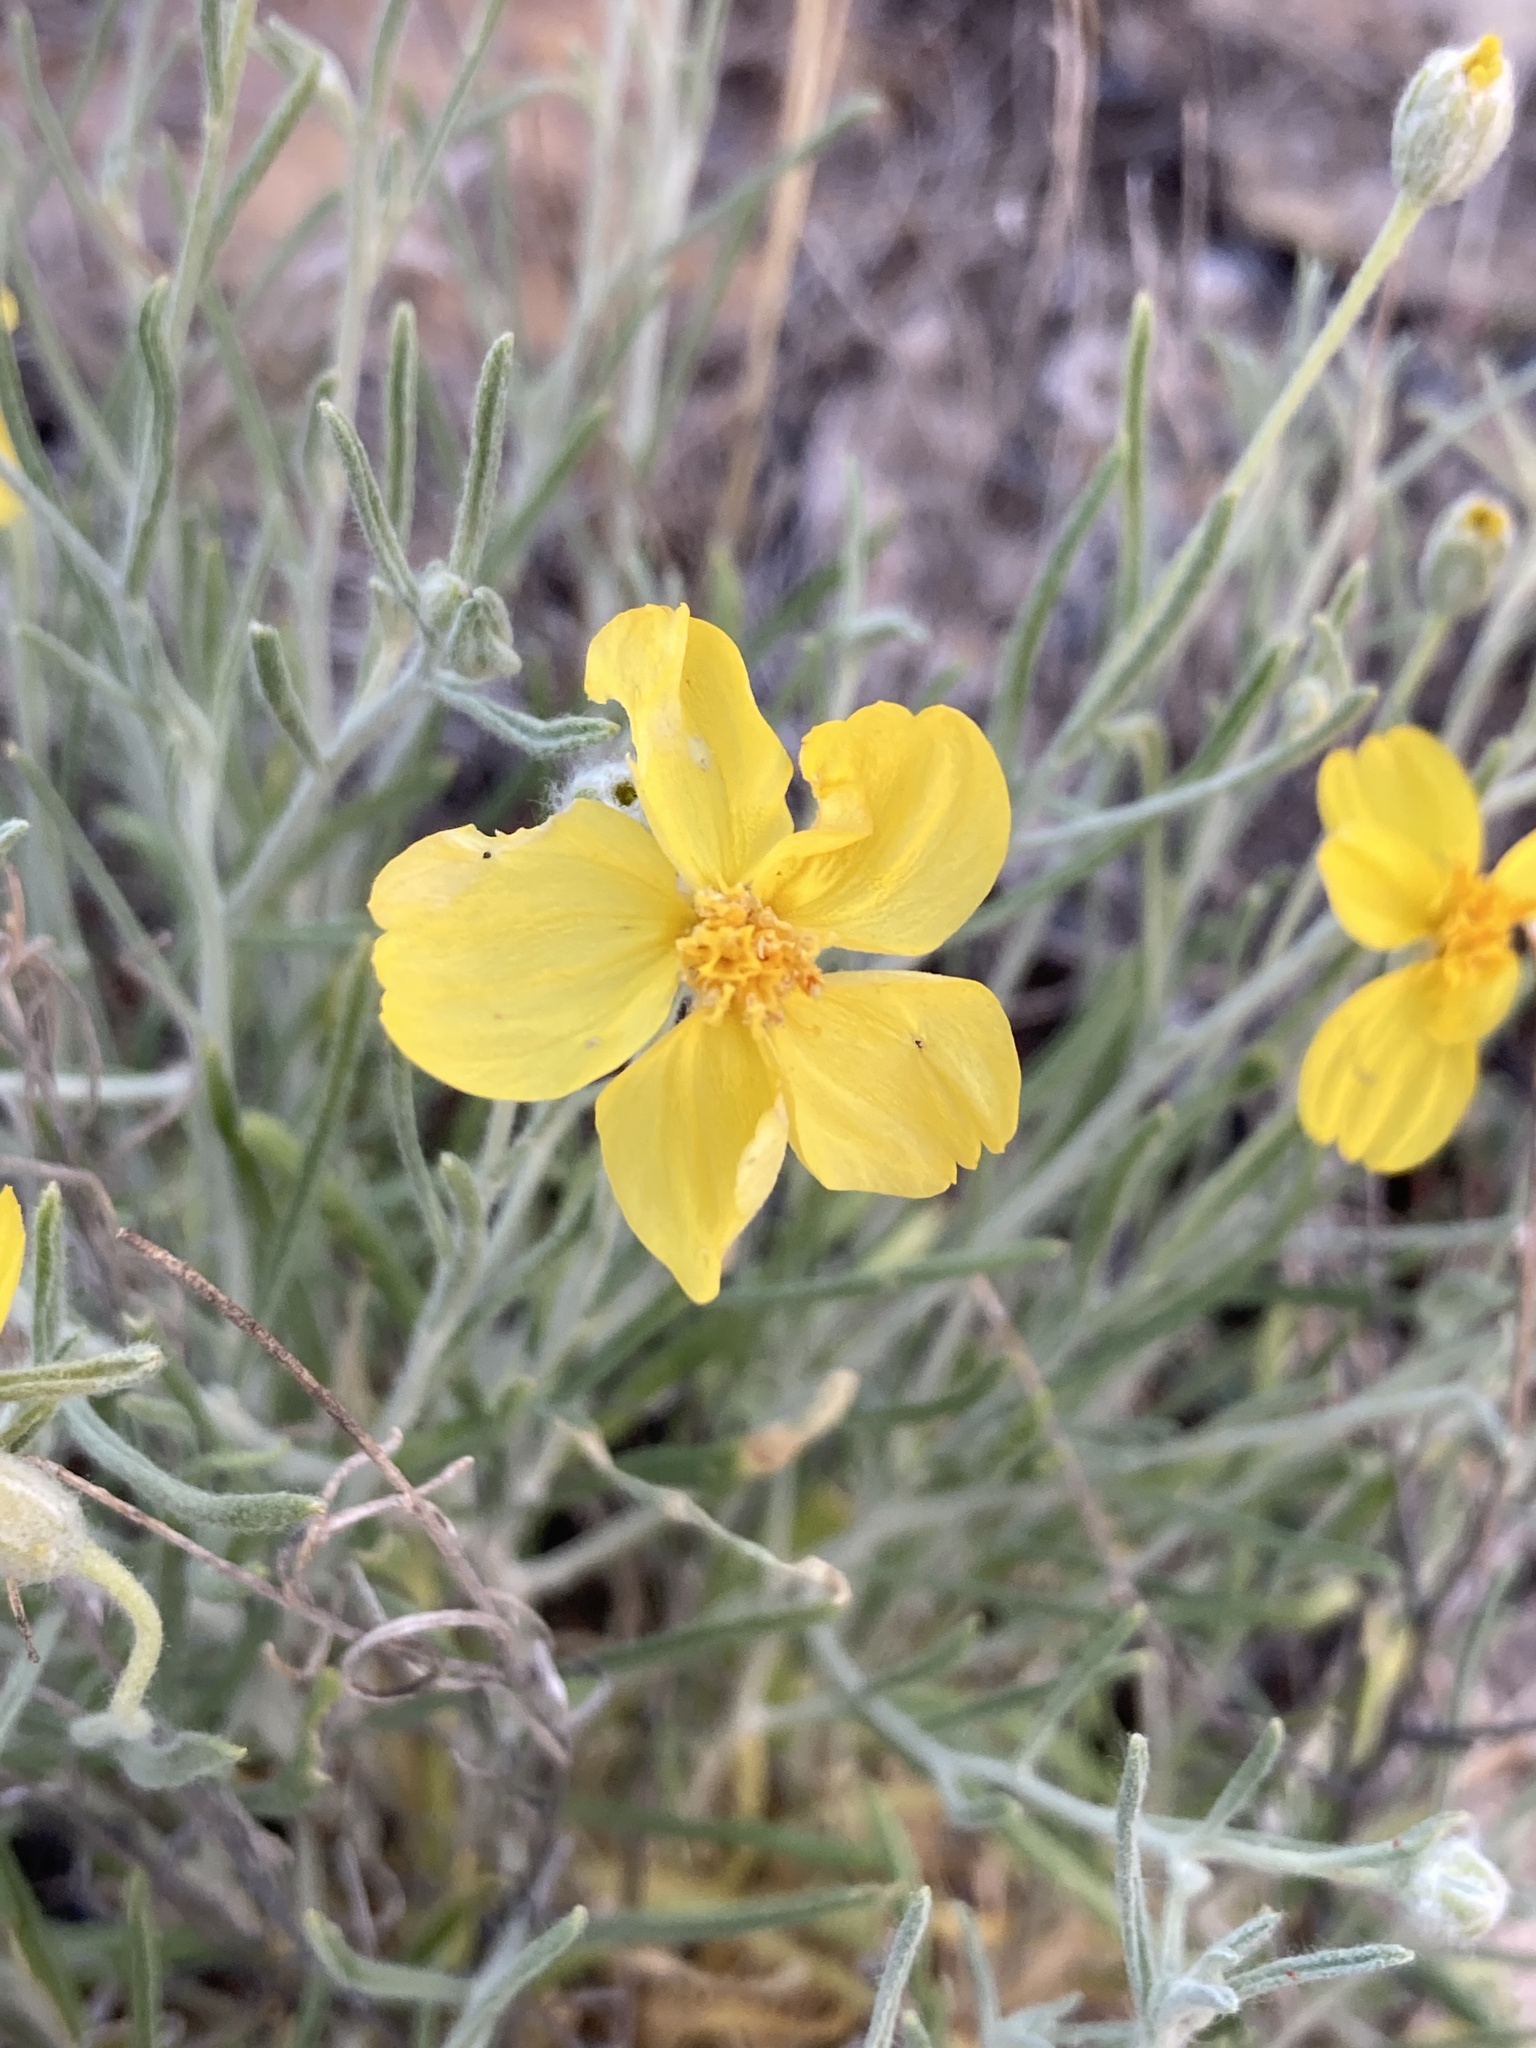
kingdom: Plantae
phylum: Tracheophyta
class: Magnoliopsida
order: Asterales
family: Asteraceae
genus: Psilostrophe
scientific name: Psilostrophe cooperi
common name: White-stem paper-flower
